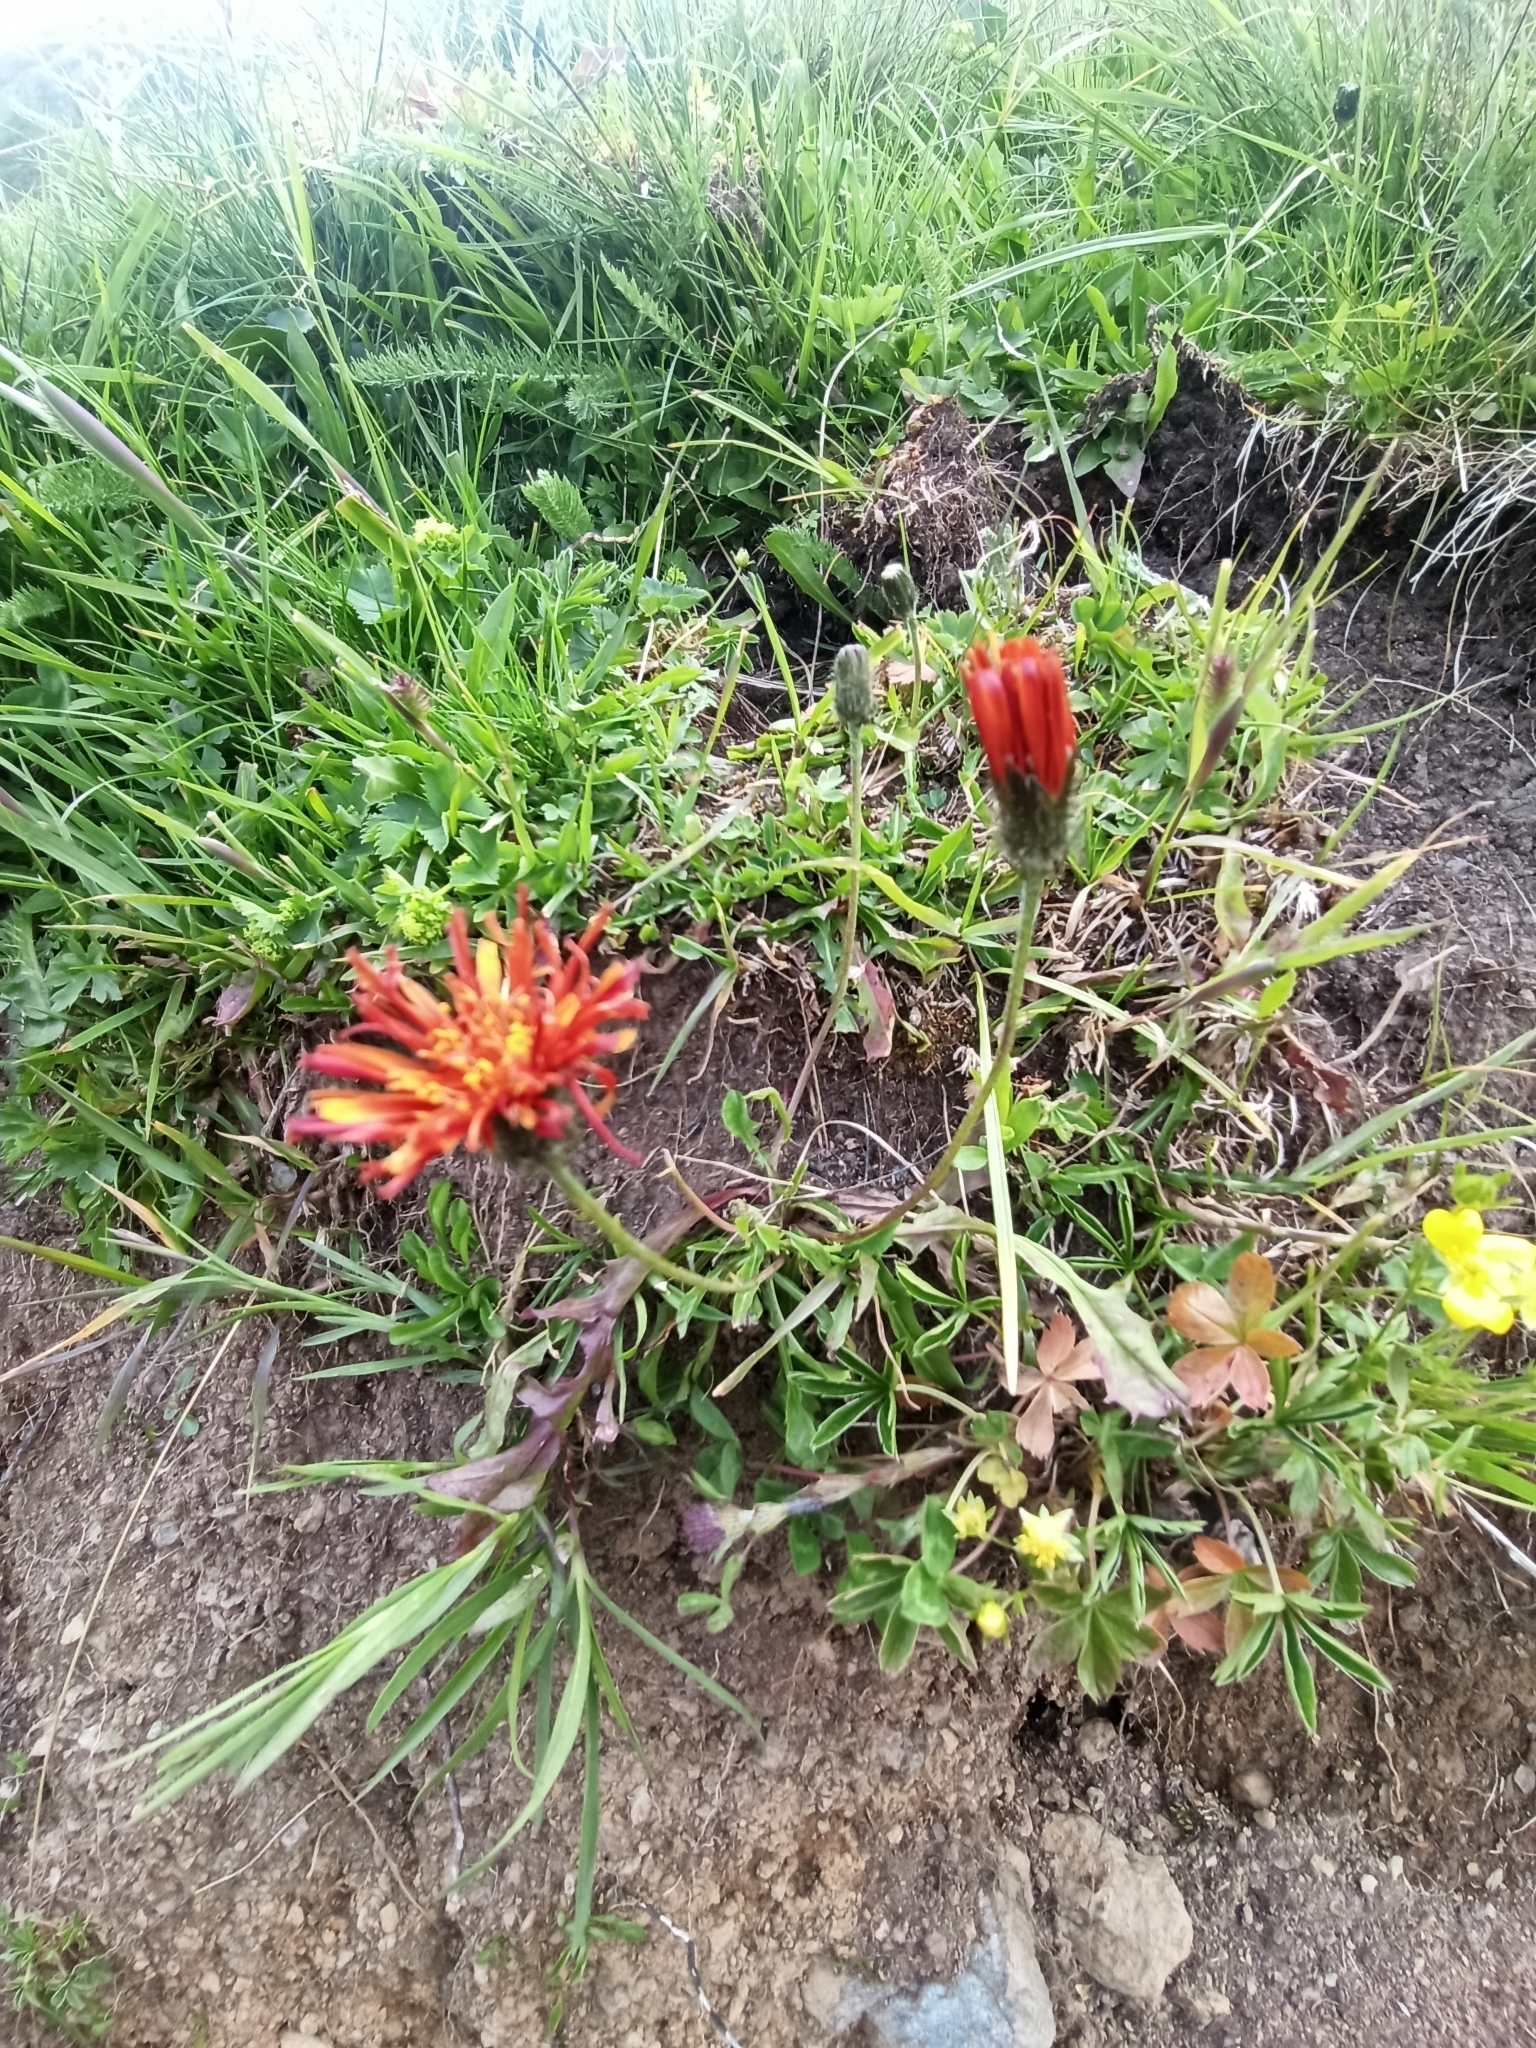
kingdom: Plantae
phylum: Tracheophyta
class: Magnoliopsida
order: Asterales
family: Asteraceae
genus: Crepis
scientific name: Crepis aurea
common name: Golden hawk's-beard
